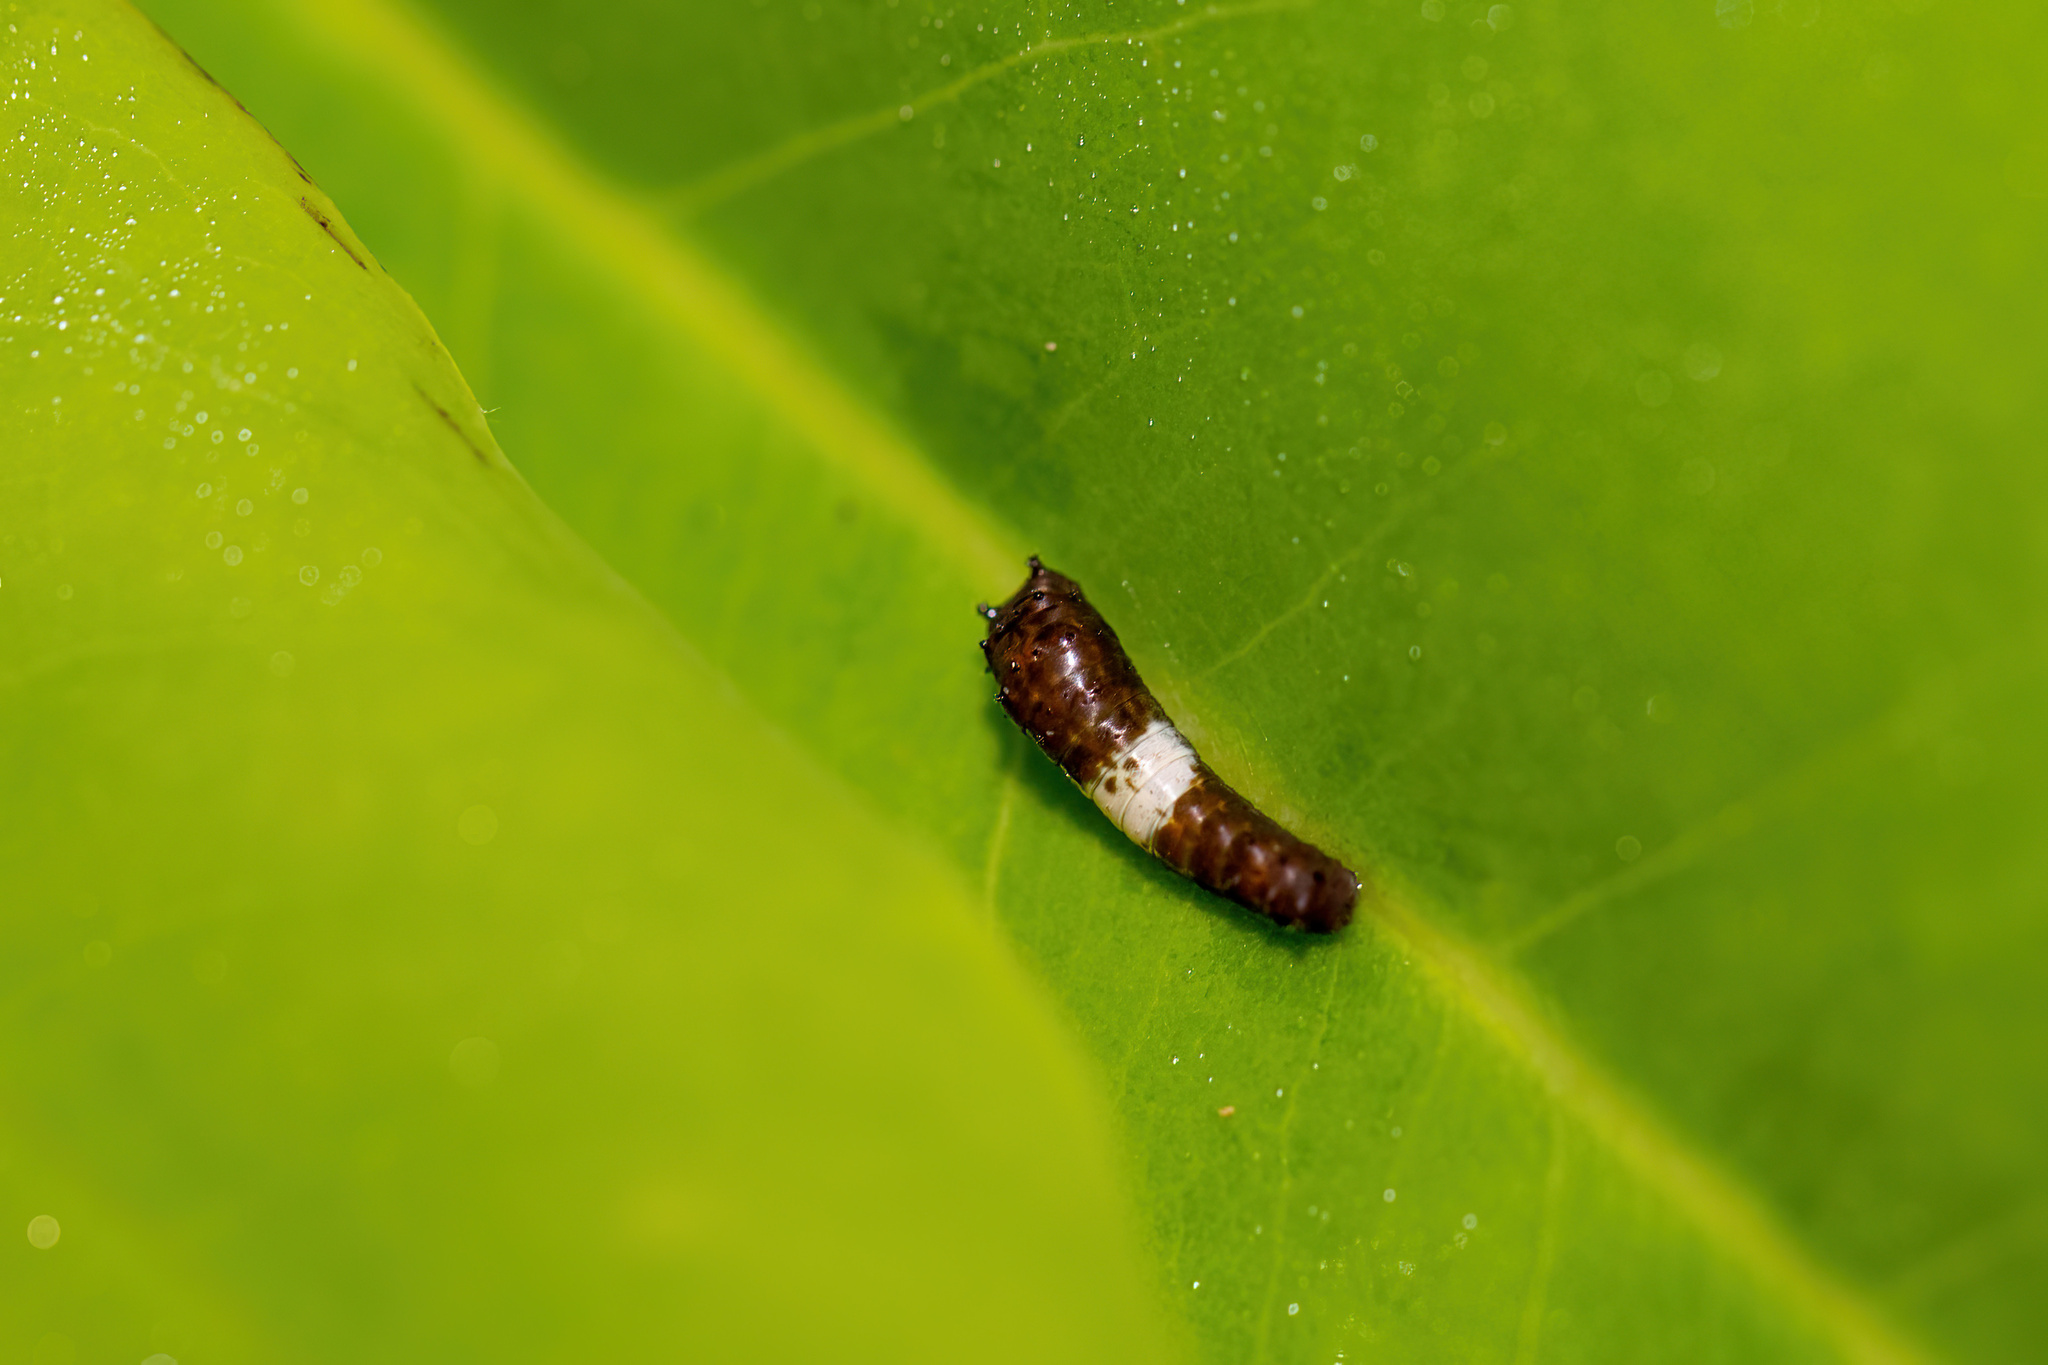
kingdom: Animalia
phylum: Arthropoda
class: Insecta
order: Lepidoptera
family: Papilionidae
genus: Papilio
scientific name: Papilio glaucus
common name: Tiger swallowtail
